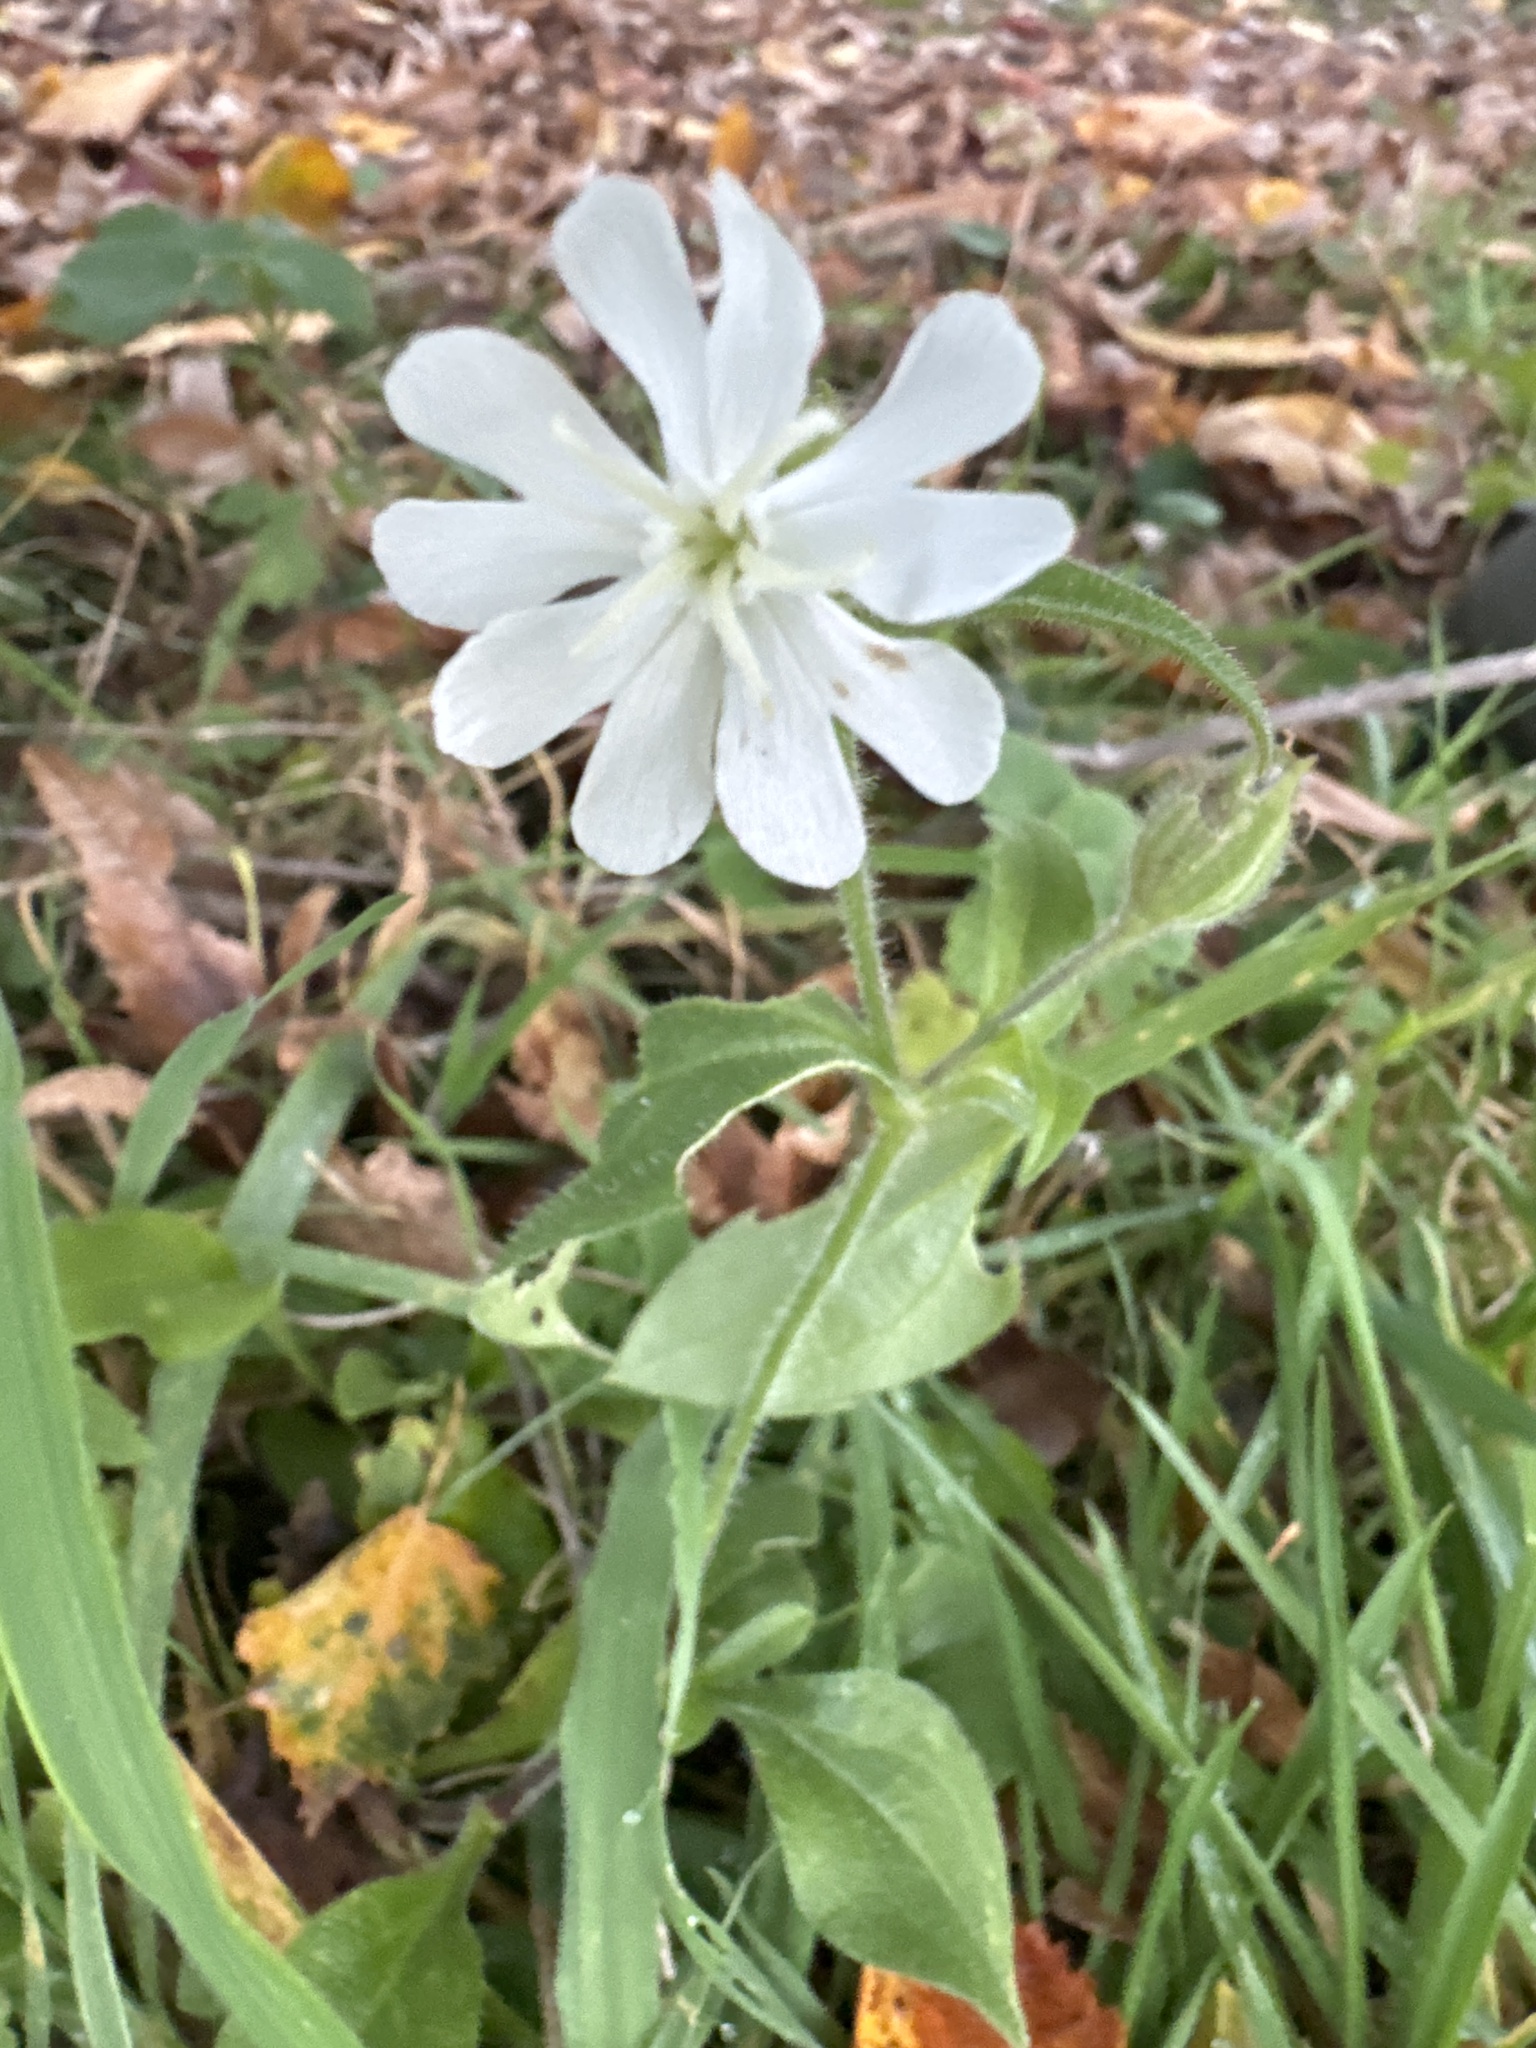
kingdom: Plantae
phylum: Tracheophyta
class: Magnoliopsida
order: Caryophyllales
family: Caryophyllaceae
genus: Silene
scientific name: Silene latifolia
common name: White campion
